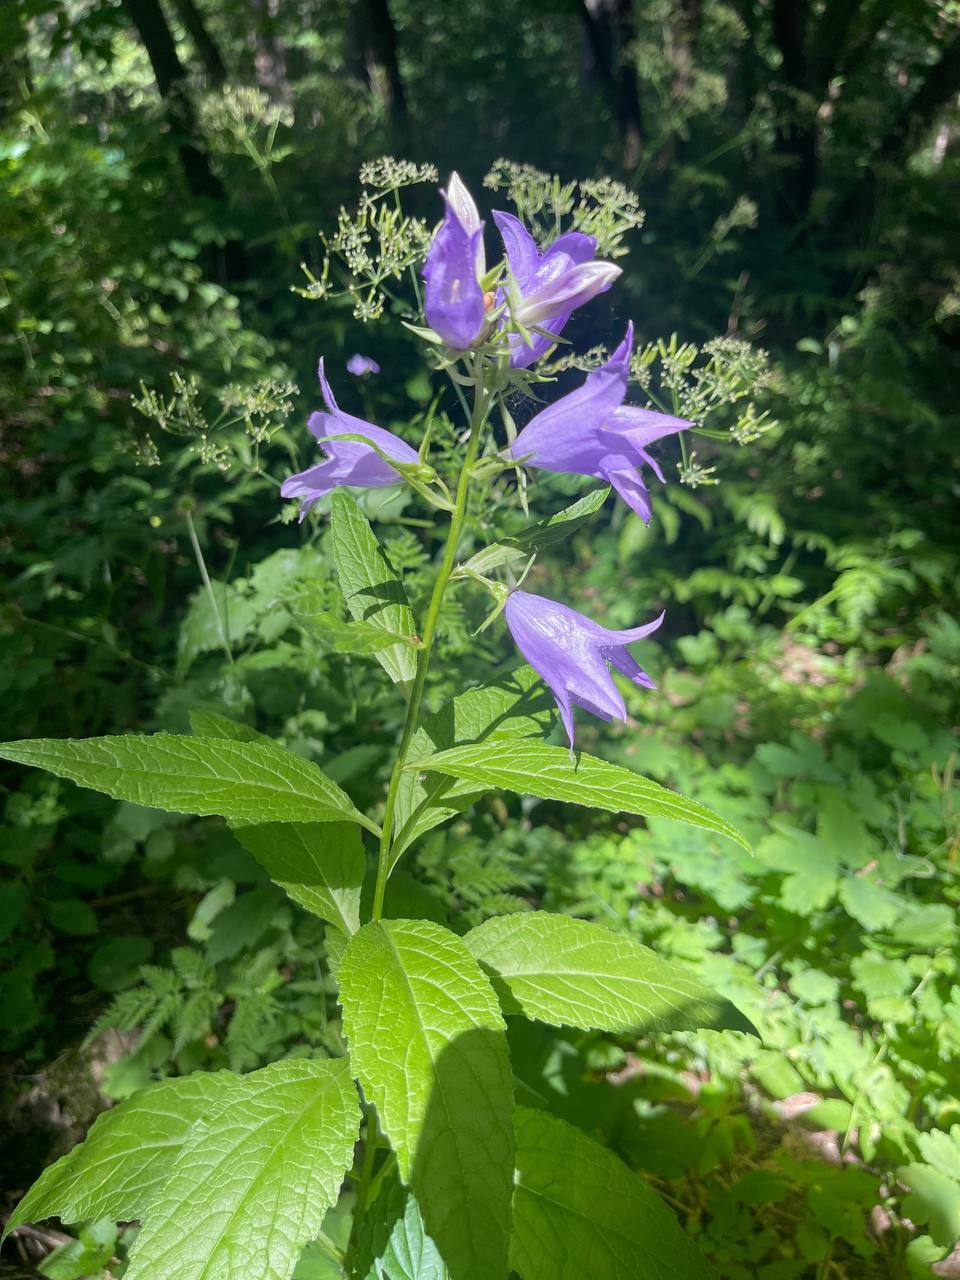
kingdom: Plantae
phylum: Tracheophyta
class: Magnoliopsida
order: Asterales
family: Campanulaceae
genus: Campanula
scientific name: Campanula latifolia
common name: Giant bellflower
